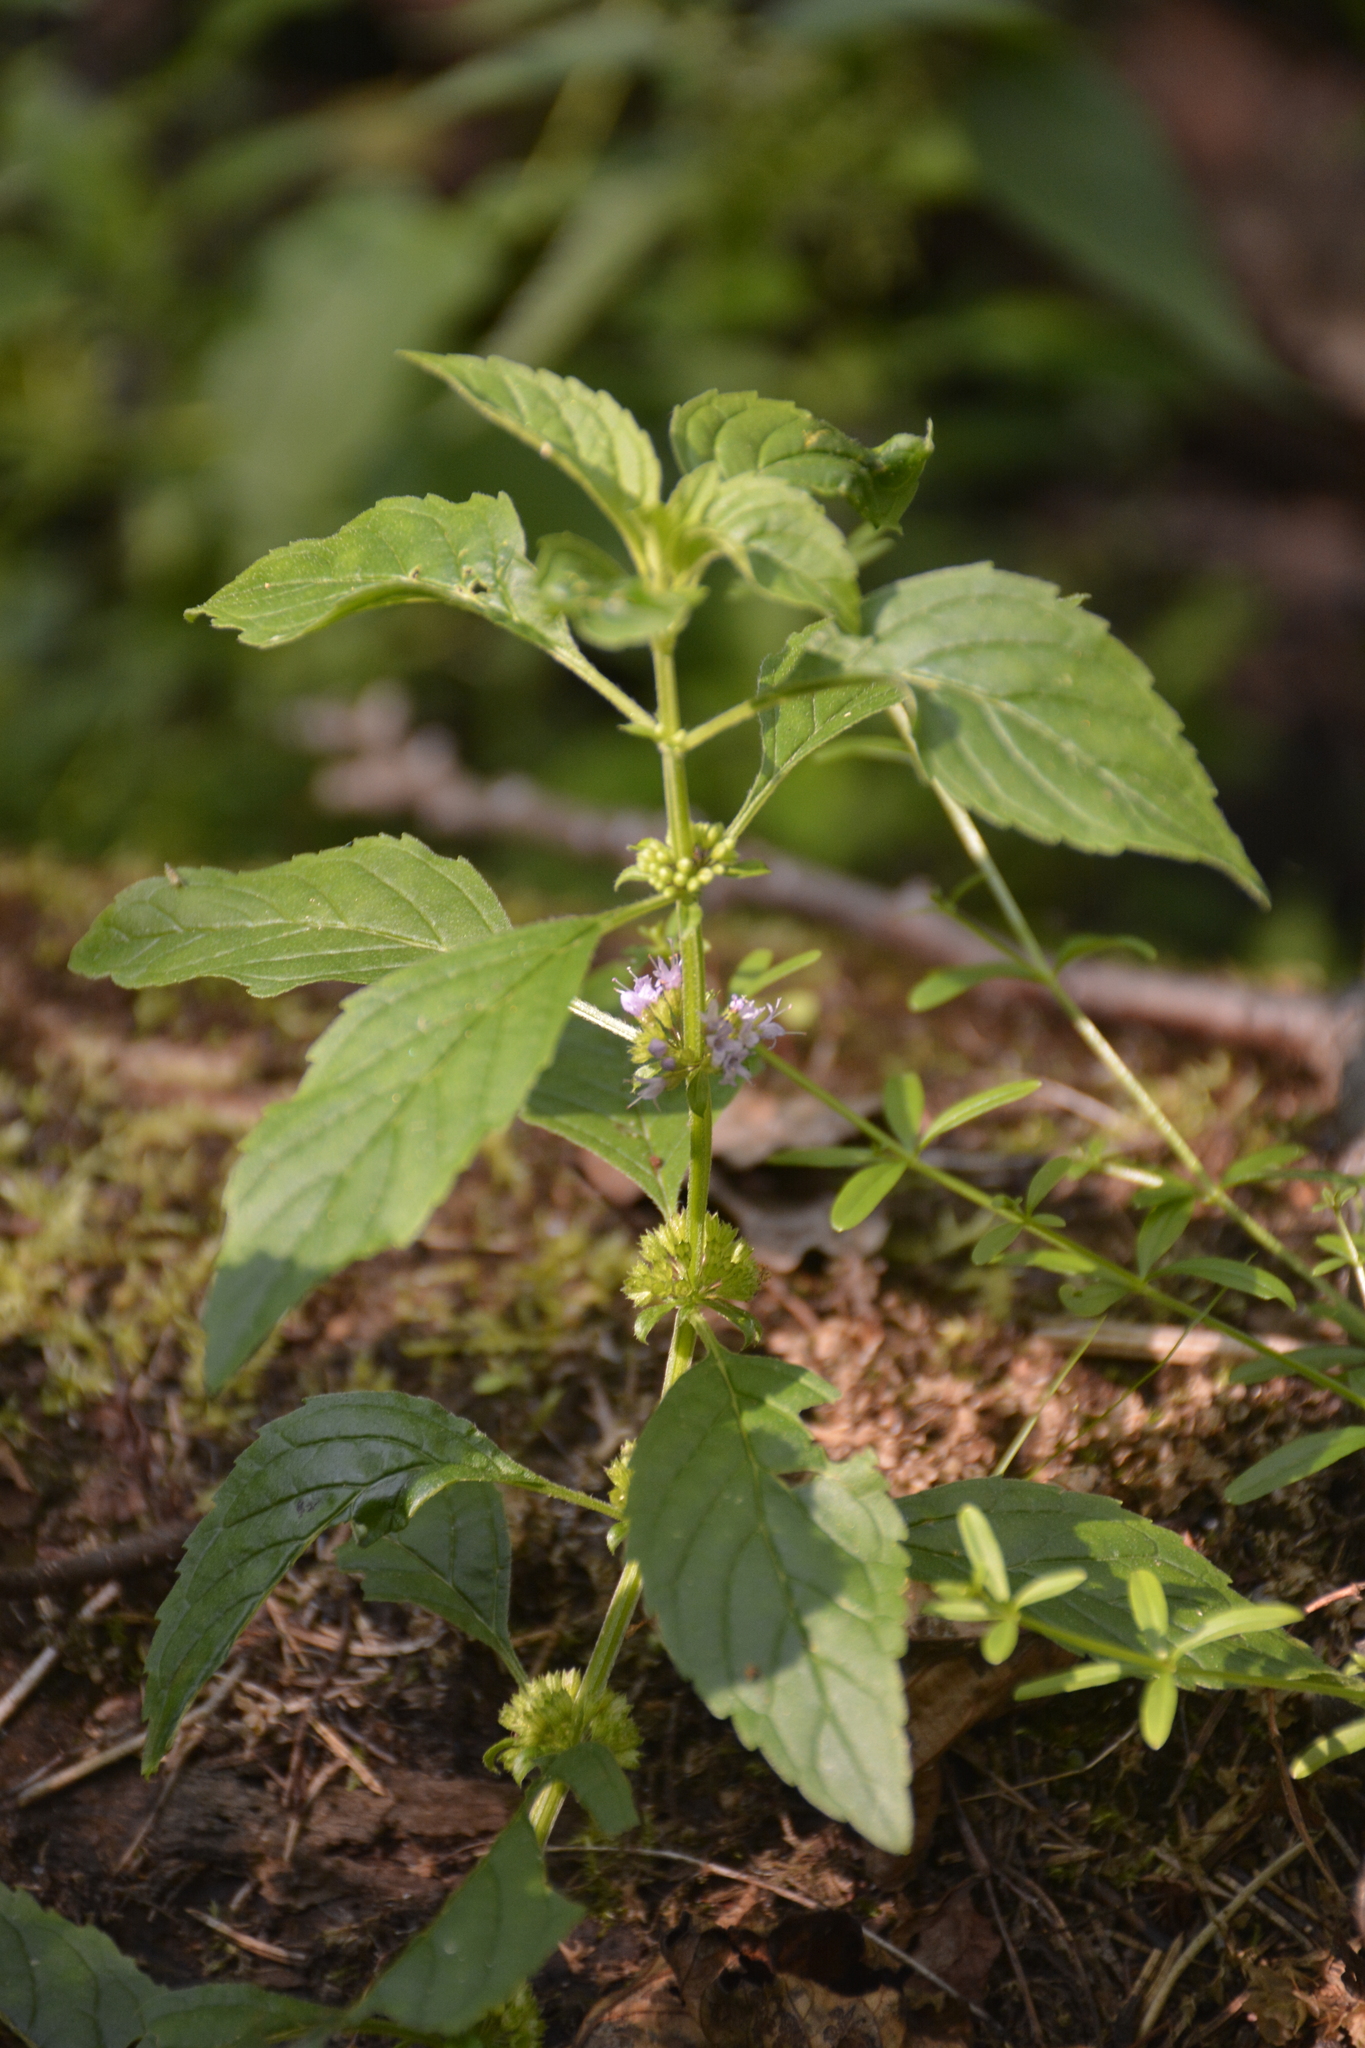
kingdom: Plantae
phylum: Tracheophyta
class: Magnoliopsida
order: Lamiales
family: Lamiaceae
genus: Mentha
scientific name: Mentha arvensis
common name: Corn mint
